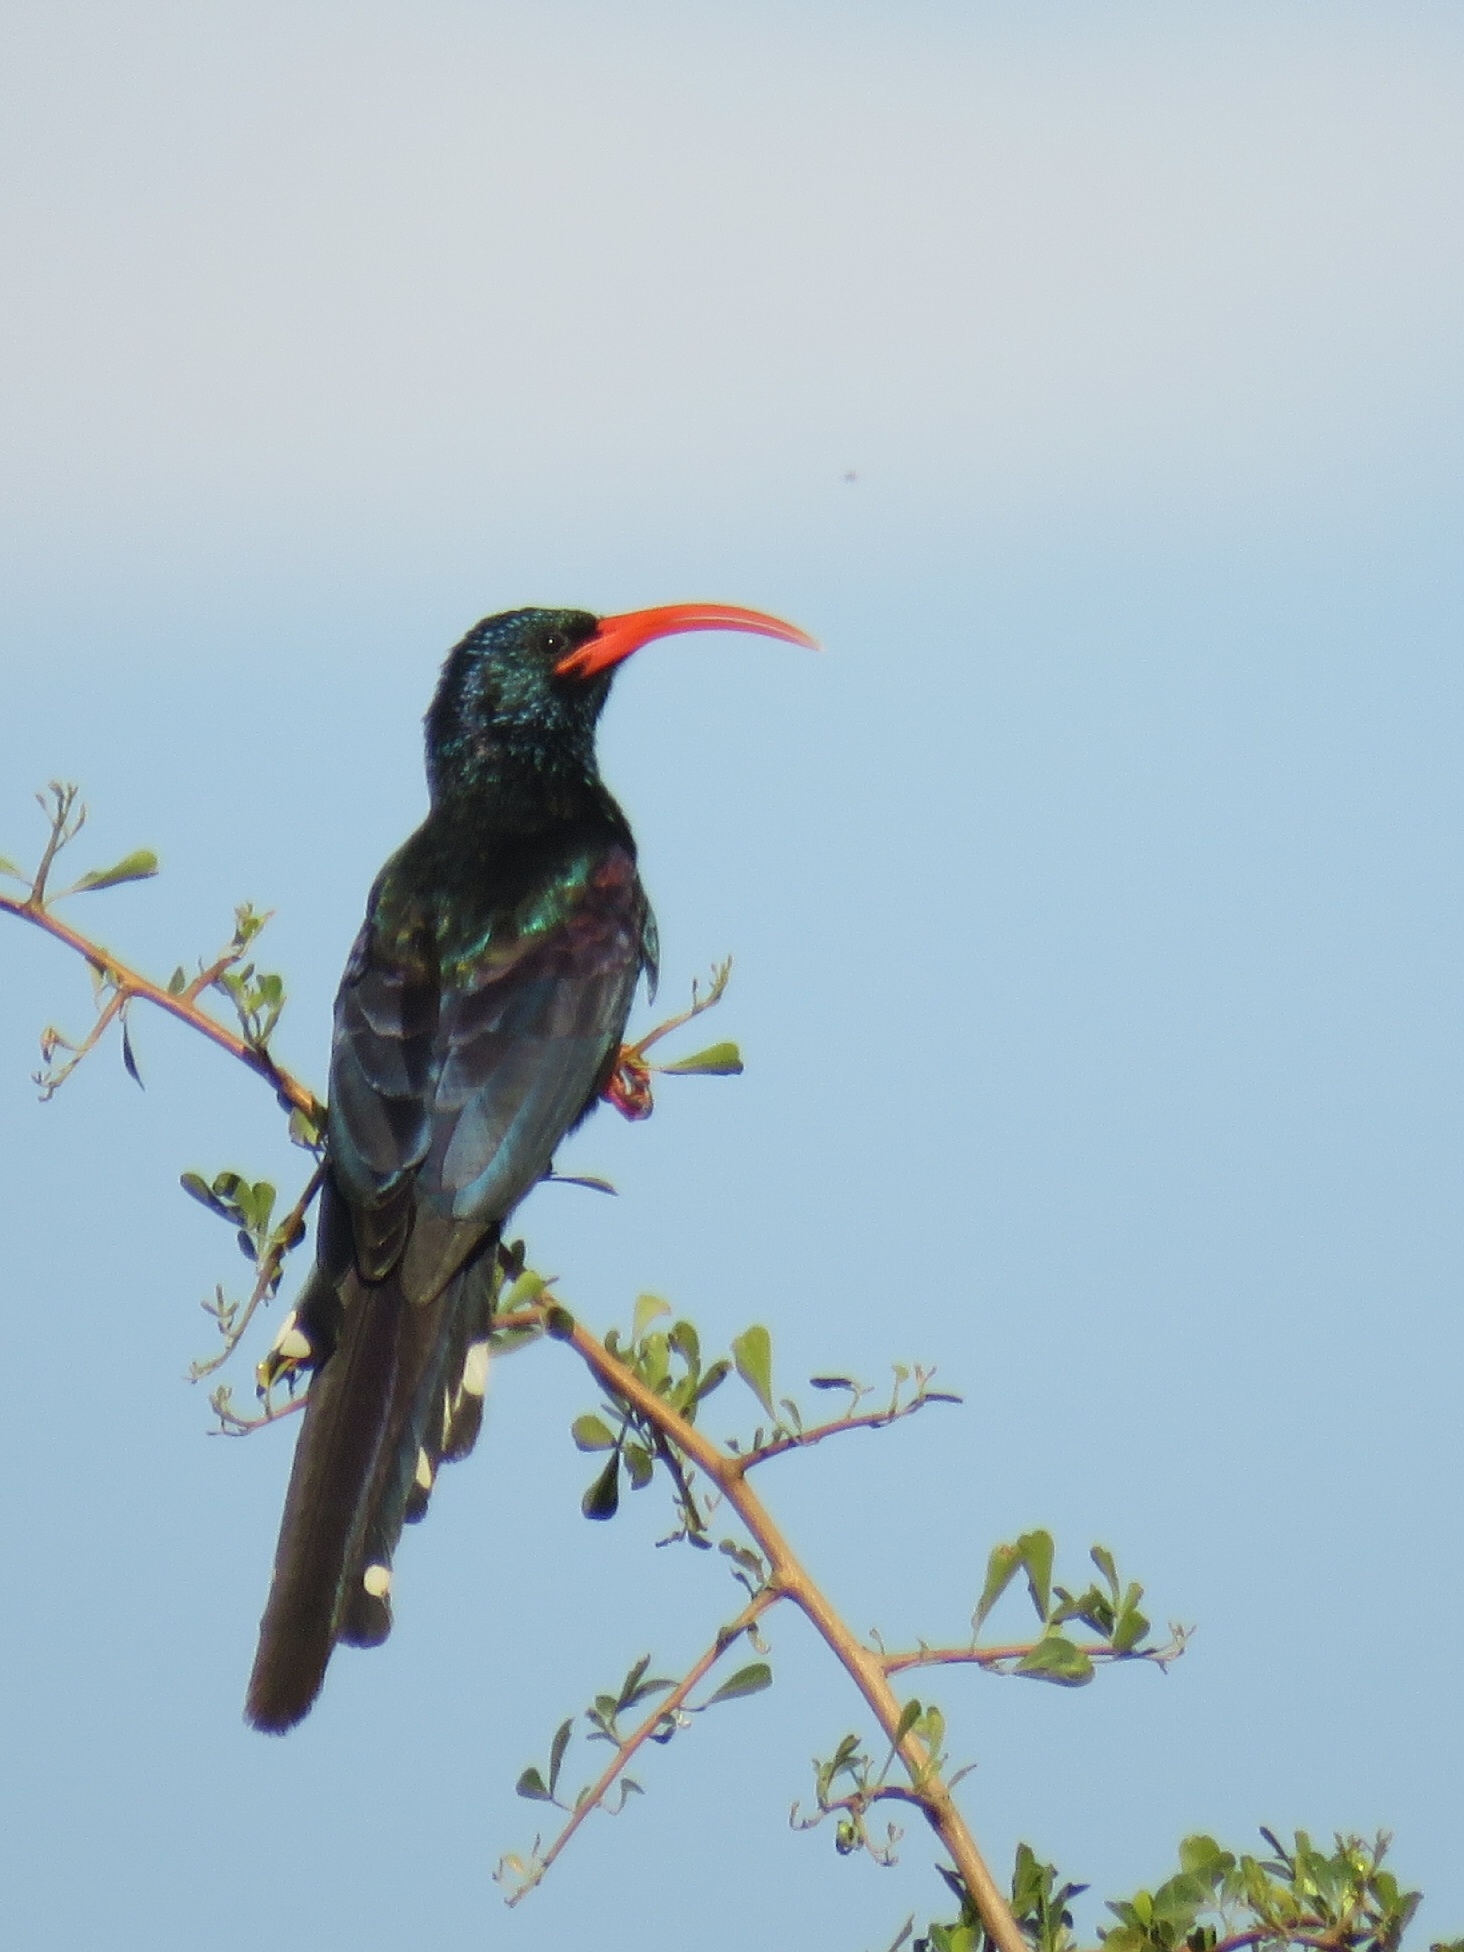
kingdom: Animalia
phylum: Chordata
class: Aves
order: Bucerotiformes
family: Phoeniculidae
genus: Phoeniculus
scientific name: Phoeniculus purpureus
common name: Green woodhoopoe
